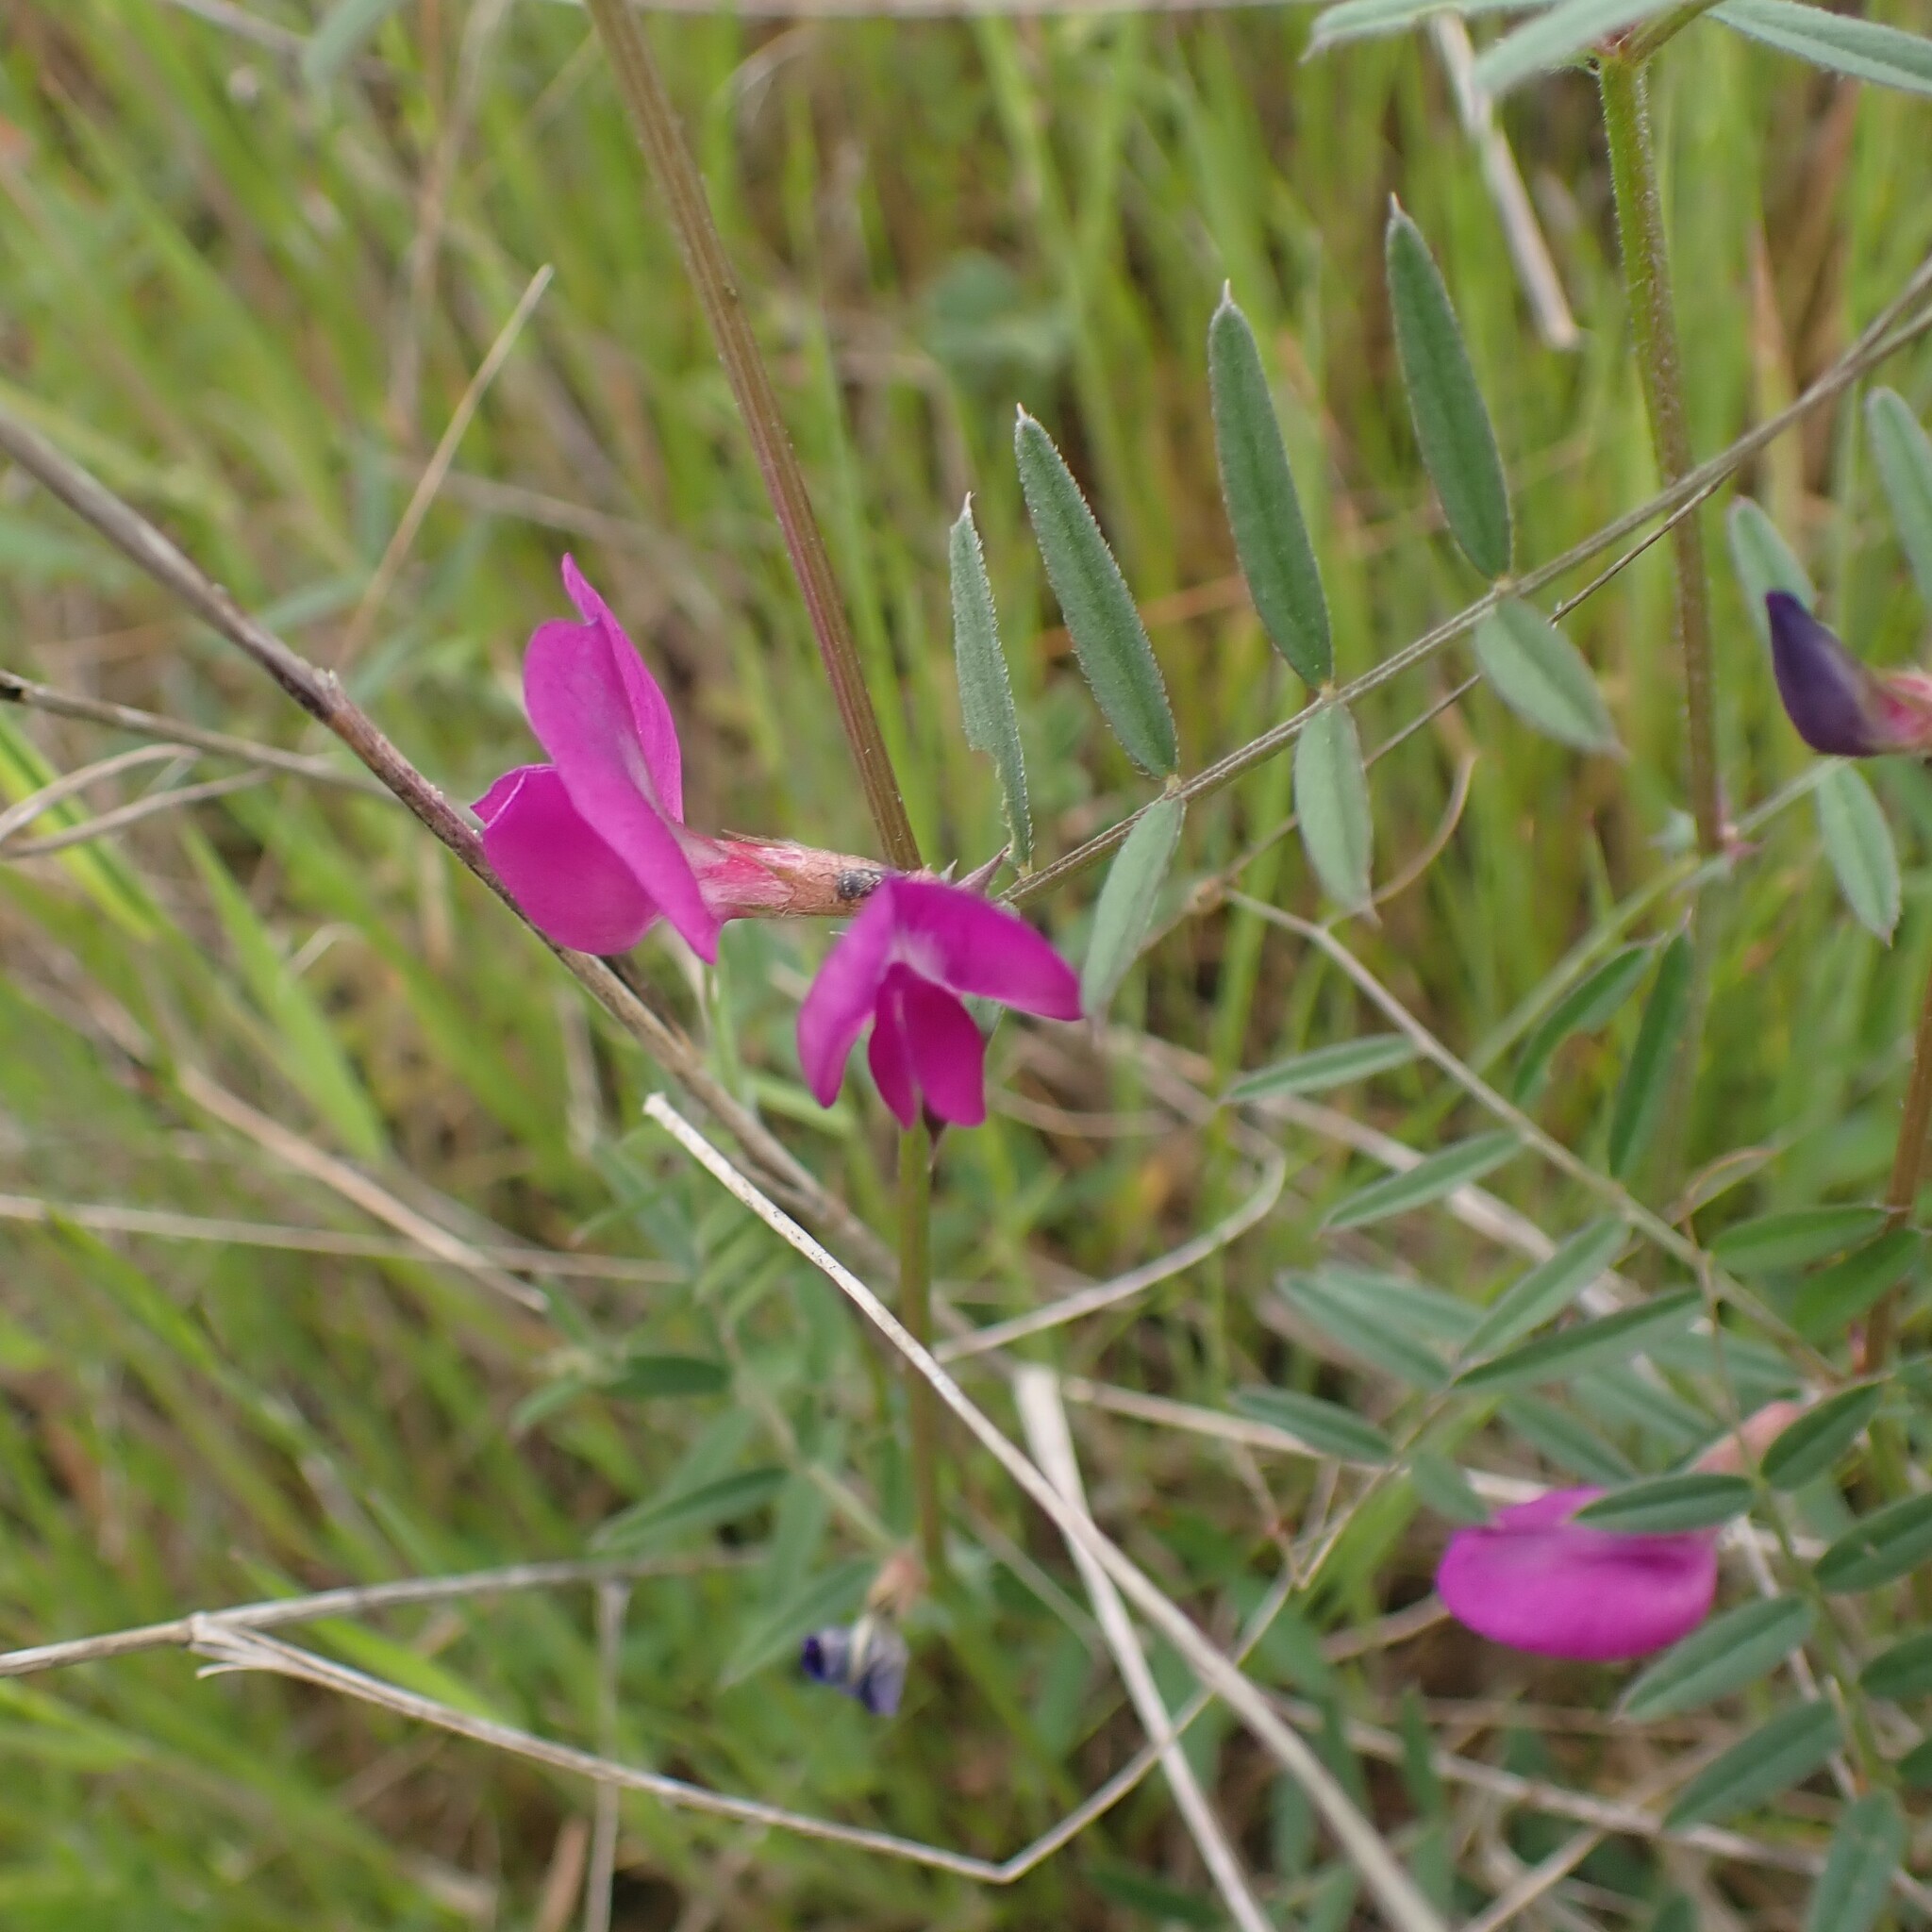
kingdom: Plantae
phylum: Tracheophyta
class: Magnoliopsida
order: Fabales
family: Fabaceae
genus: Vicia
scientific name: Vicia sativa
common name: Garden vetch
